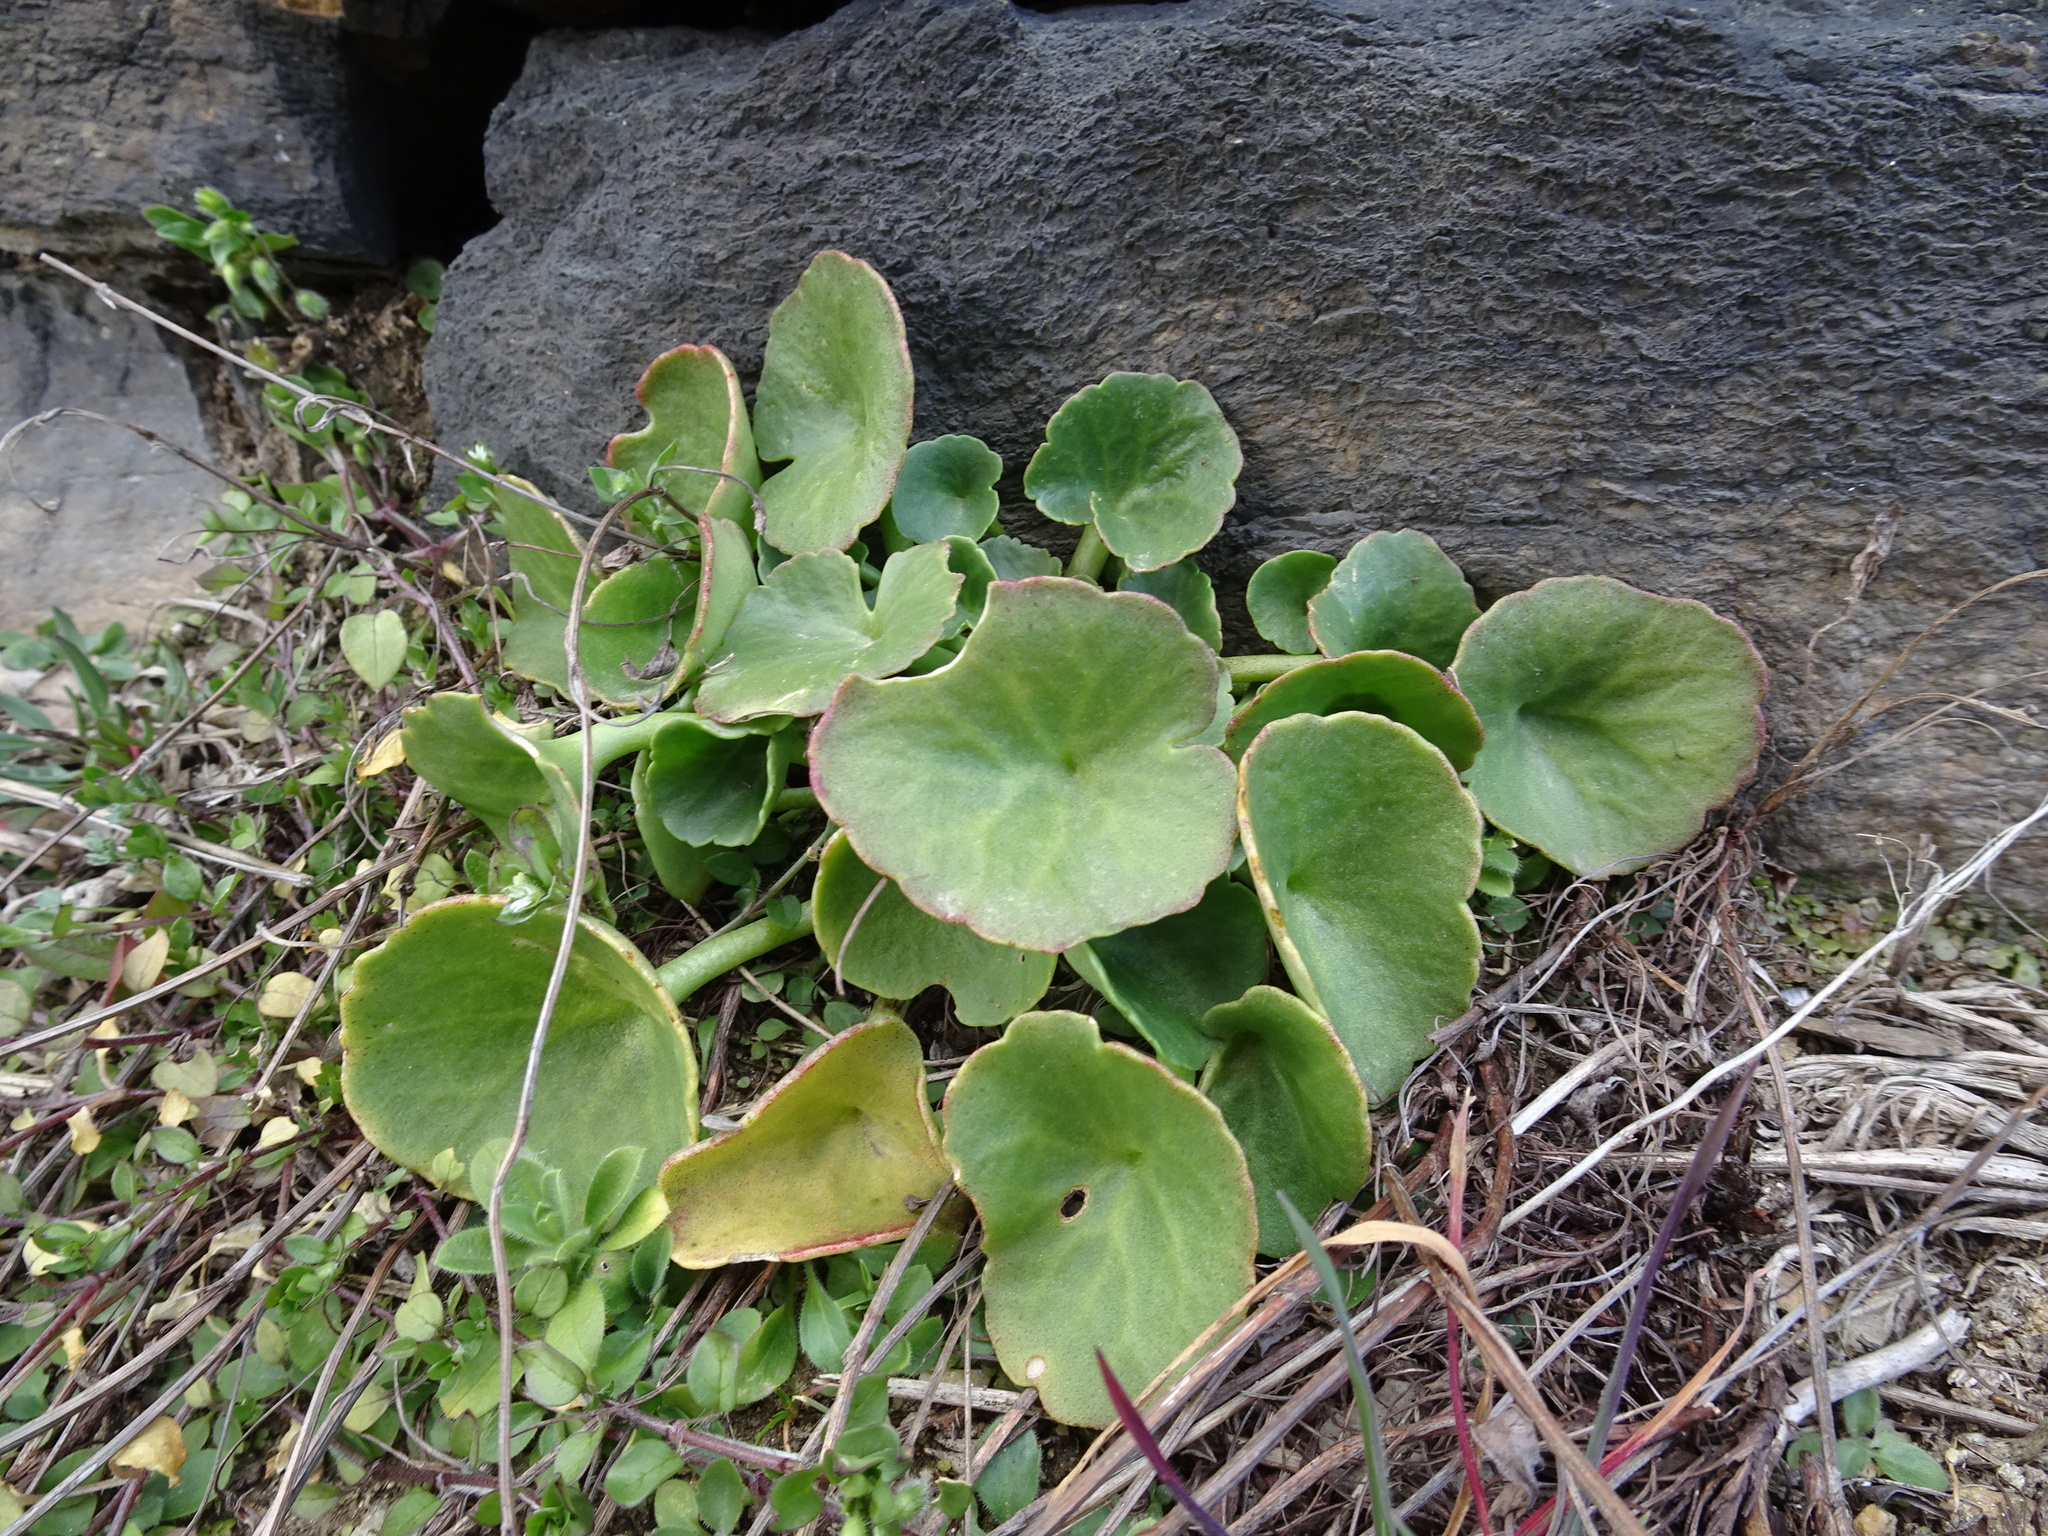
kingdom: Plantae
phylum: Tracheophyta
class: Magnoliopsida
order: Saxifragales
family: Crassulaceae
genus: Umbilicus
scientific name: Umbilicus rupestris
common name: Navelwort
